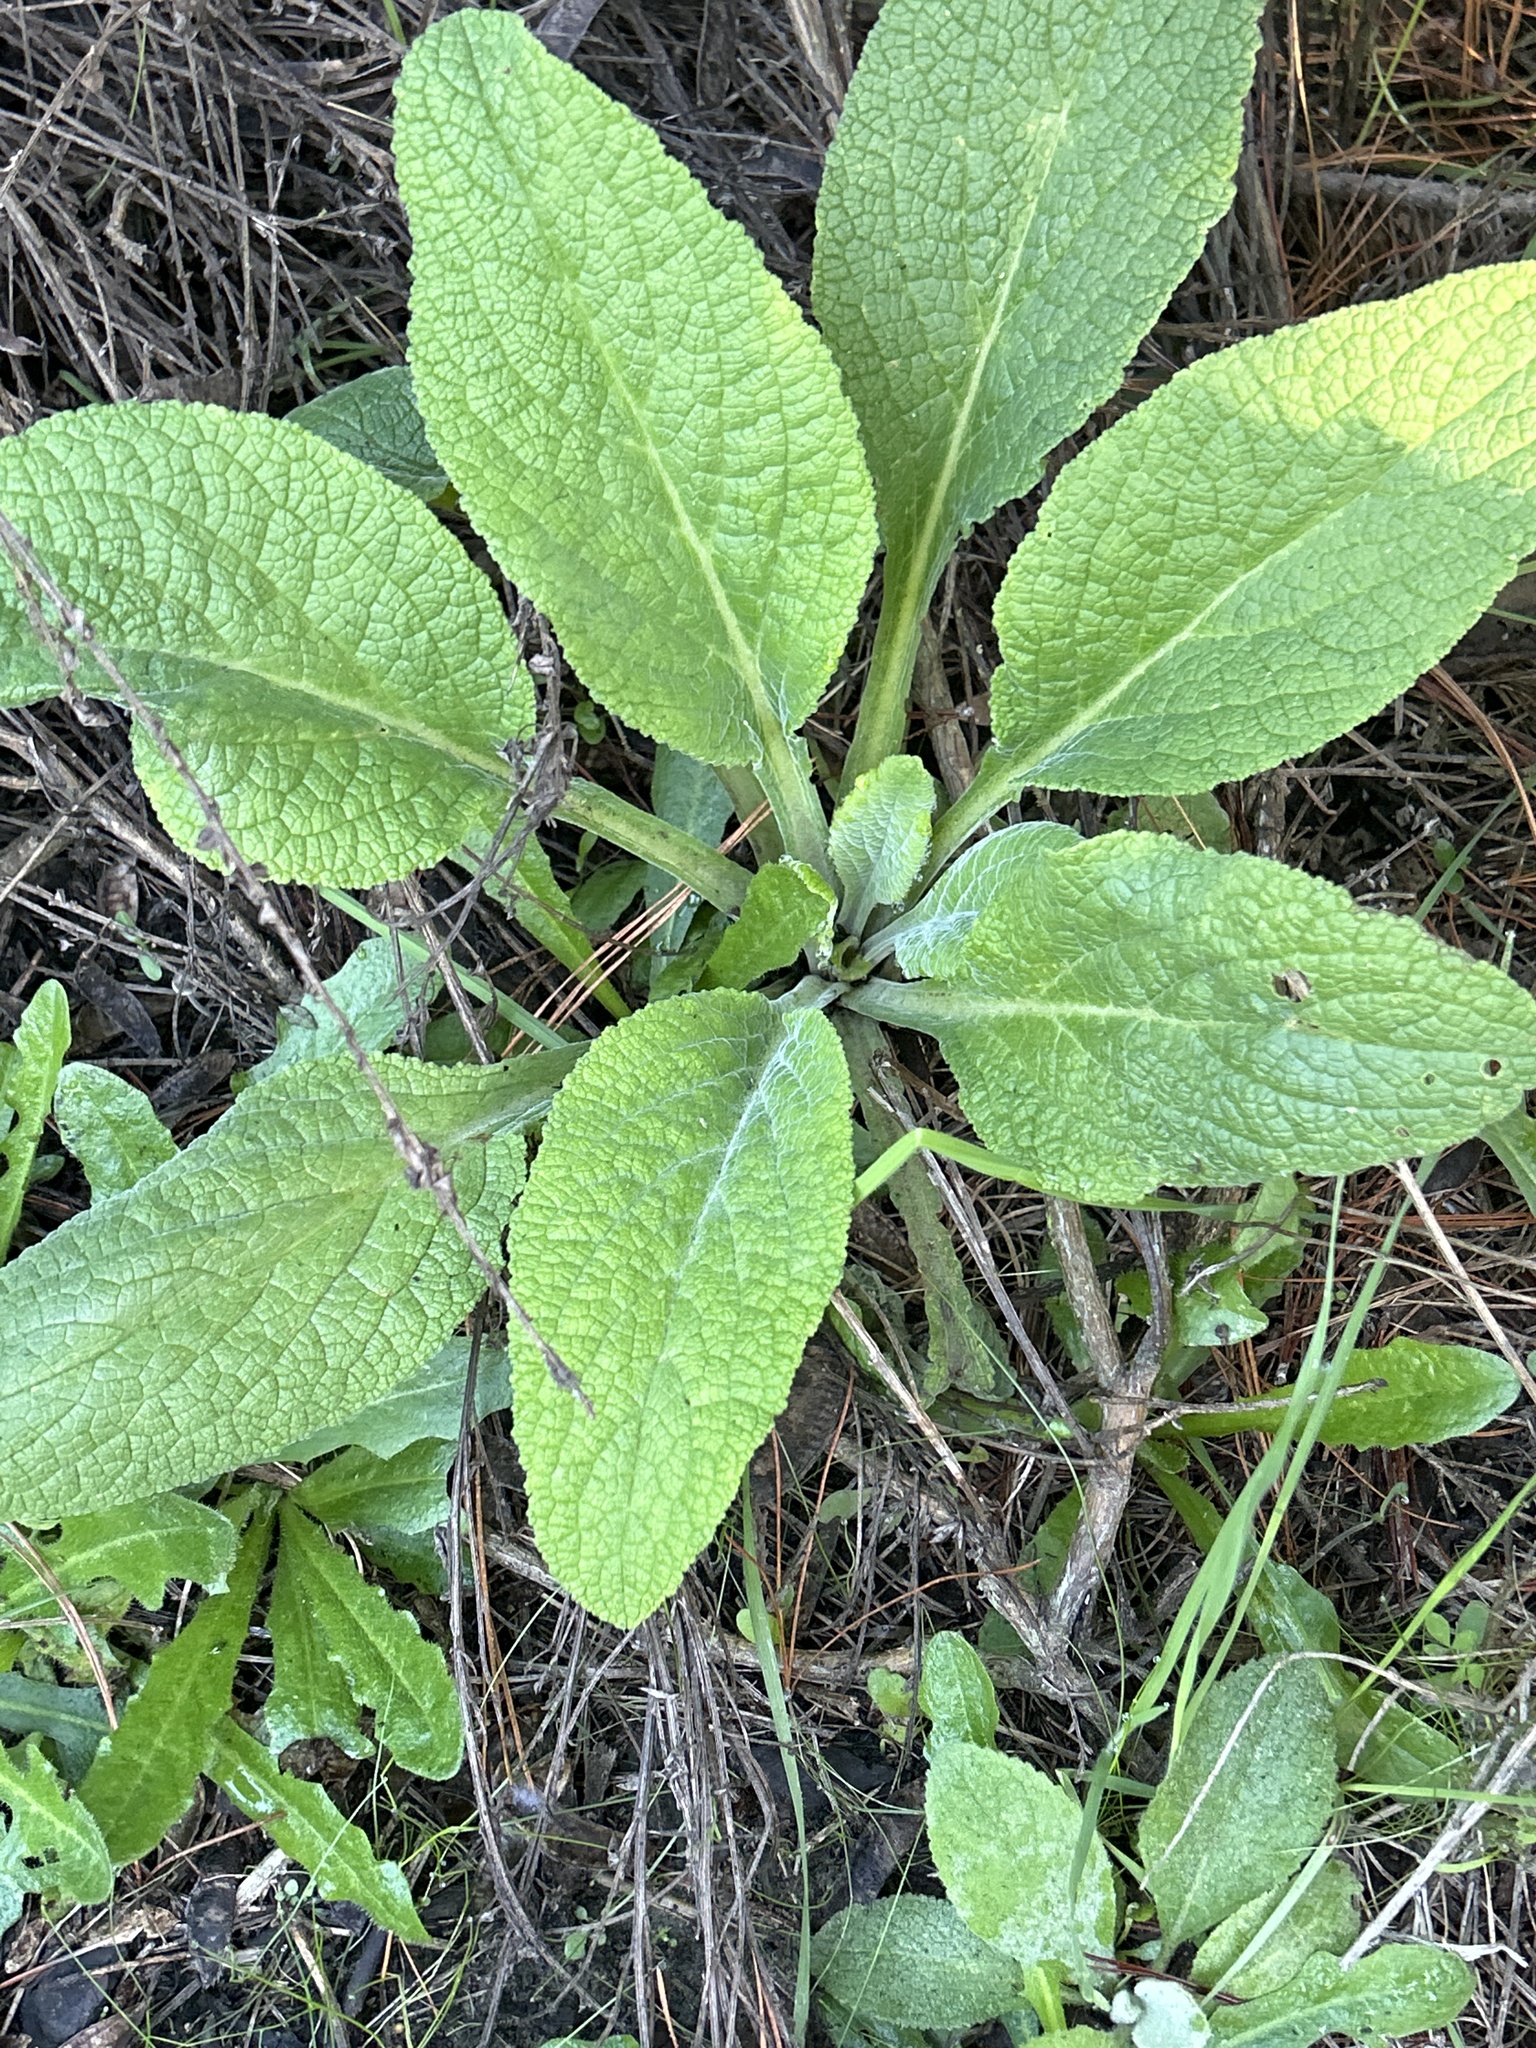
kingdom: Plantae
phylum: Tracheophyta
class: Magnoliopsida
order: Lamiales
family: Plantaginaceae
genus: Digitalis
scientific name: Digitalis purpurea
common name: Foxglove
